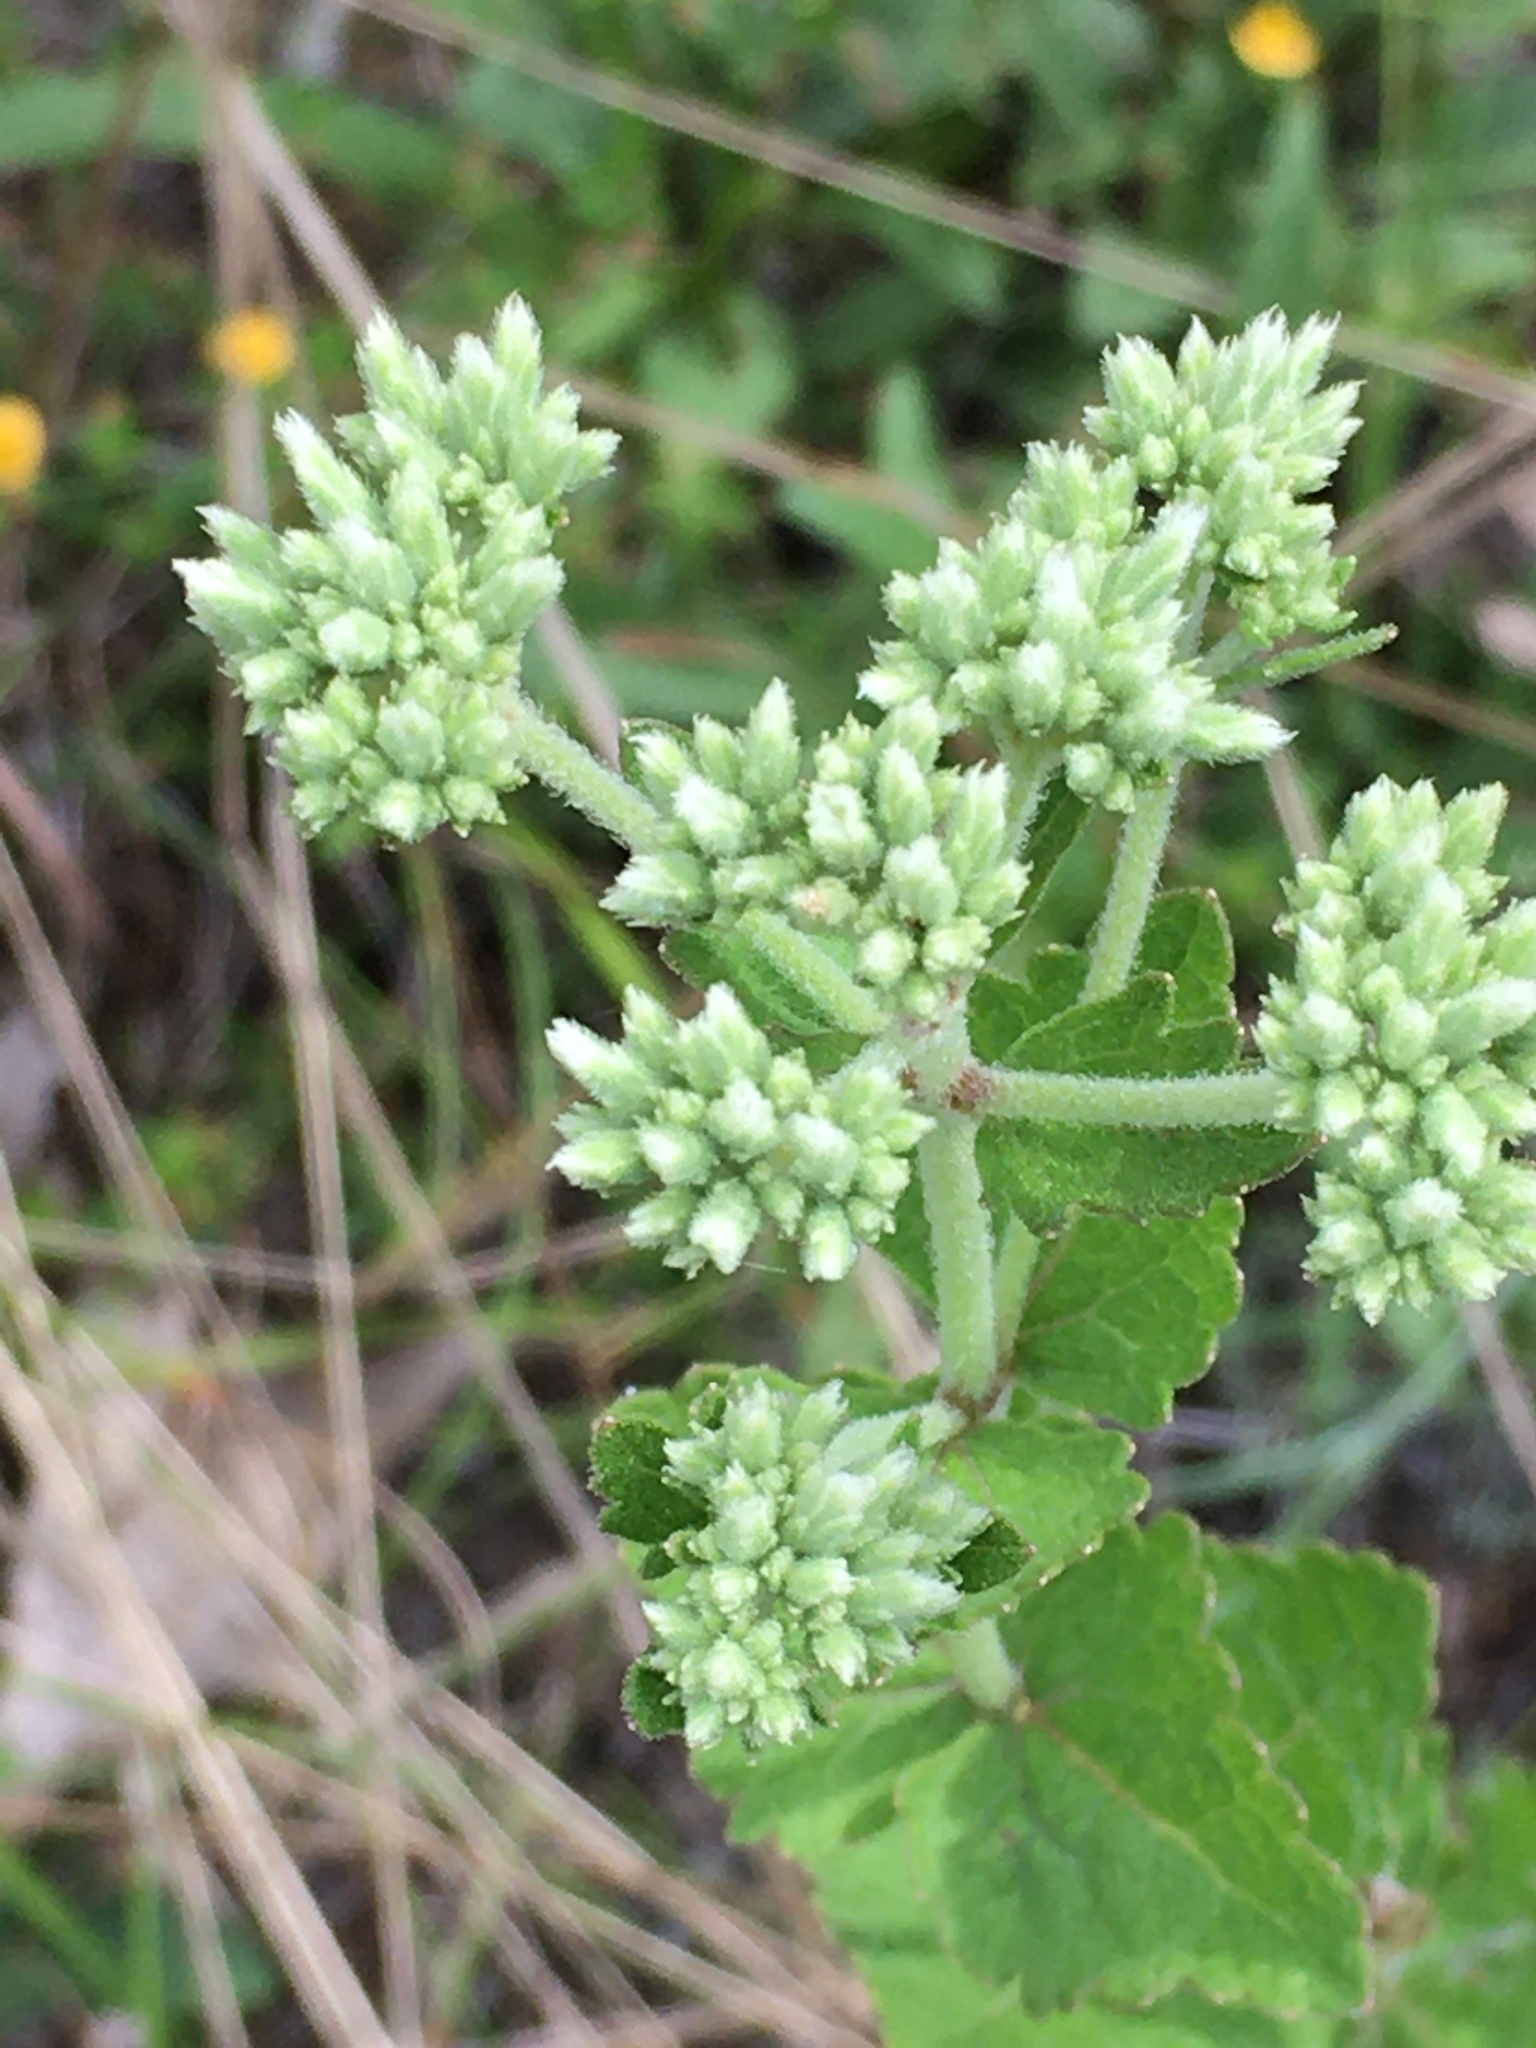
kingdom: Plantae
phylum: Tracheophyta
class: Magnoliopsida
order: Asterales
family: Asteraceae
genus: Eupatorium
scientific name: Eupatorium rotundifolium
